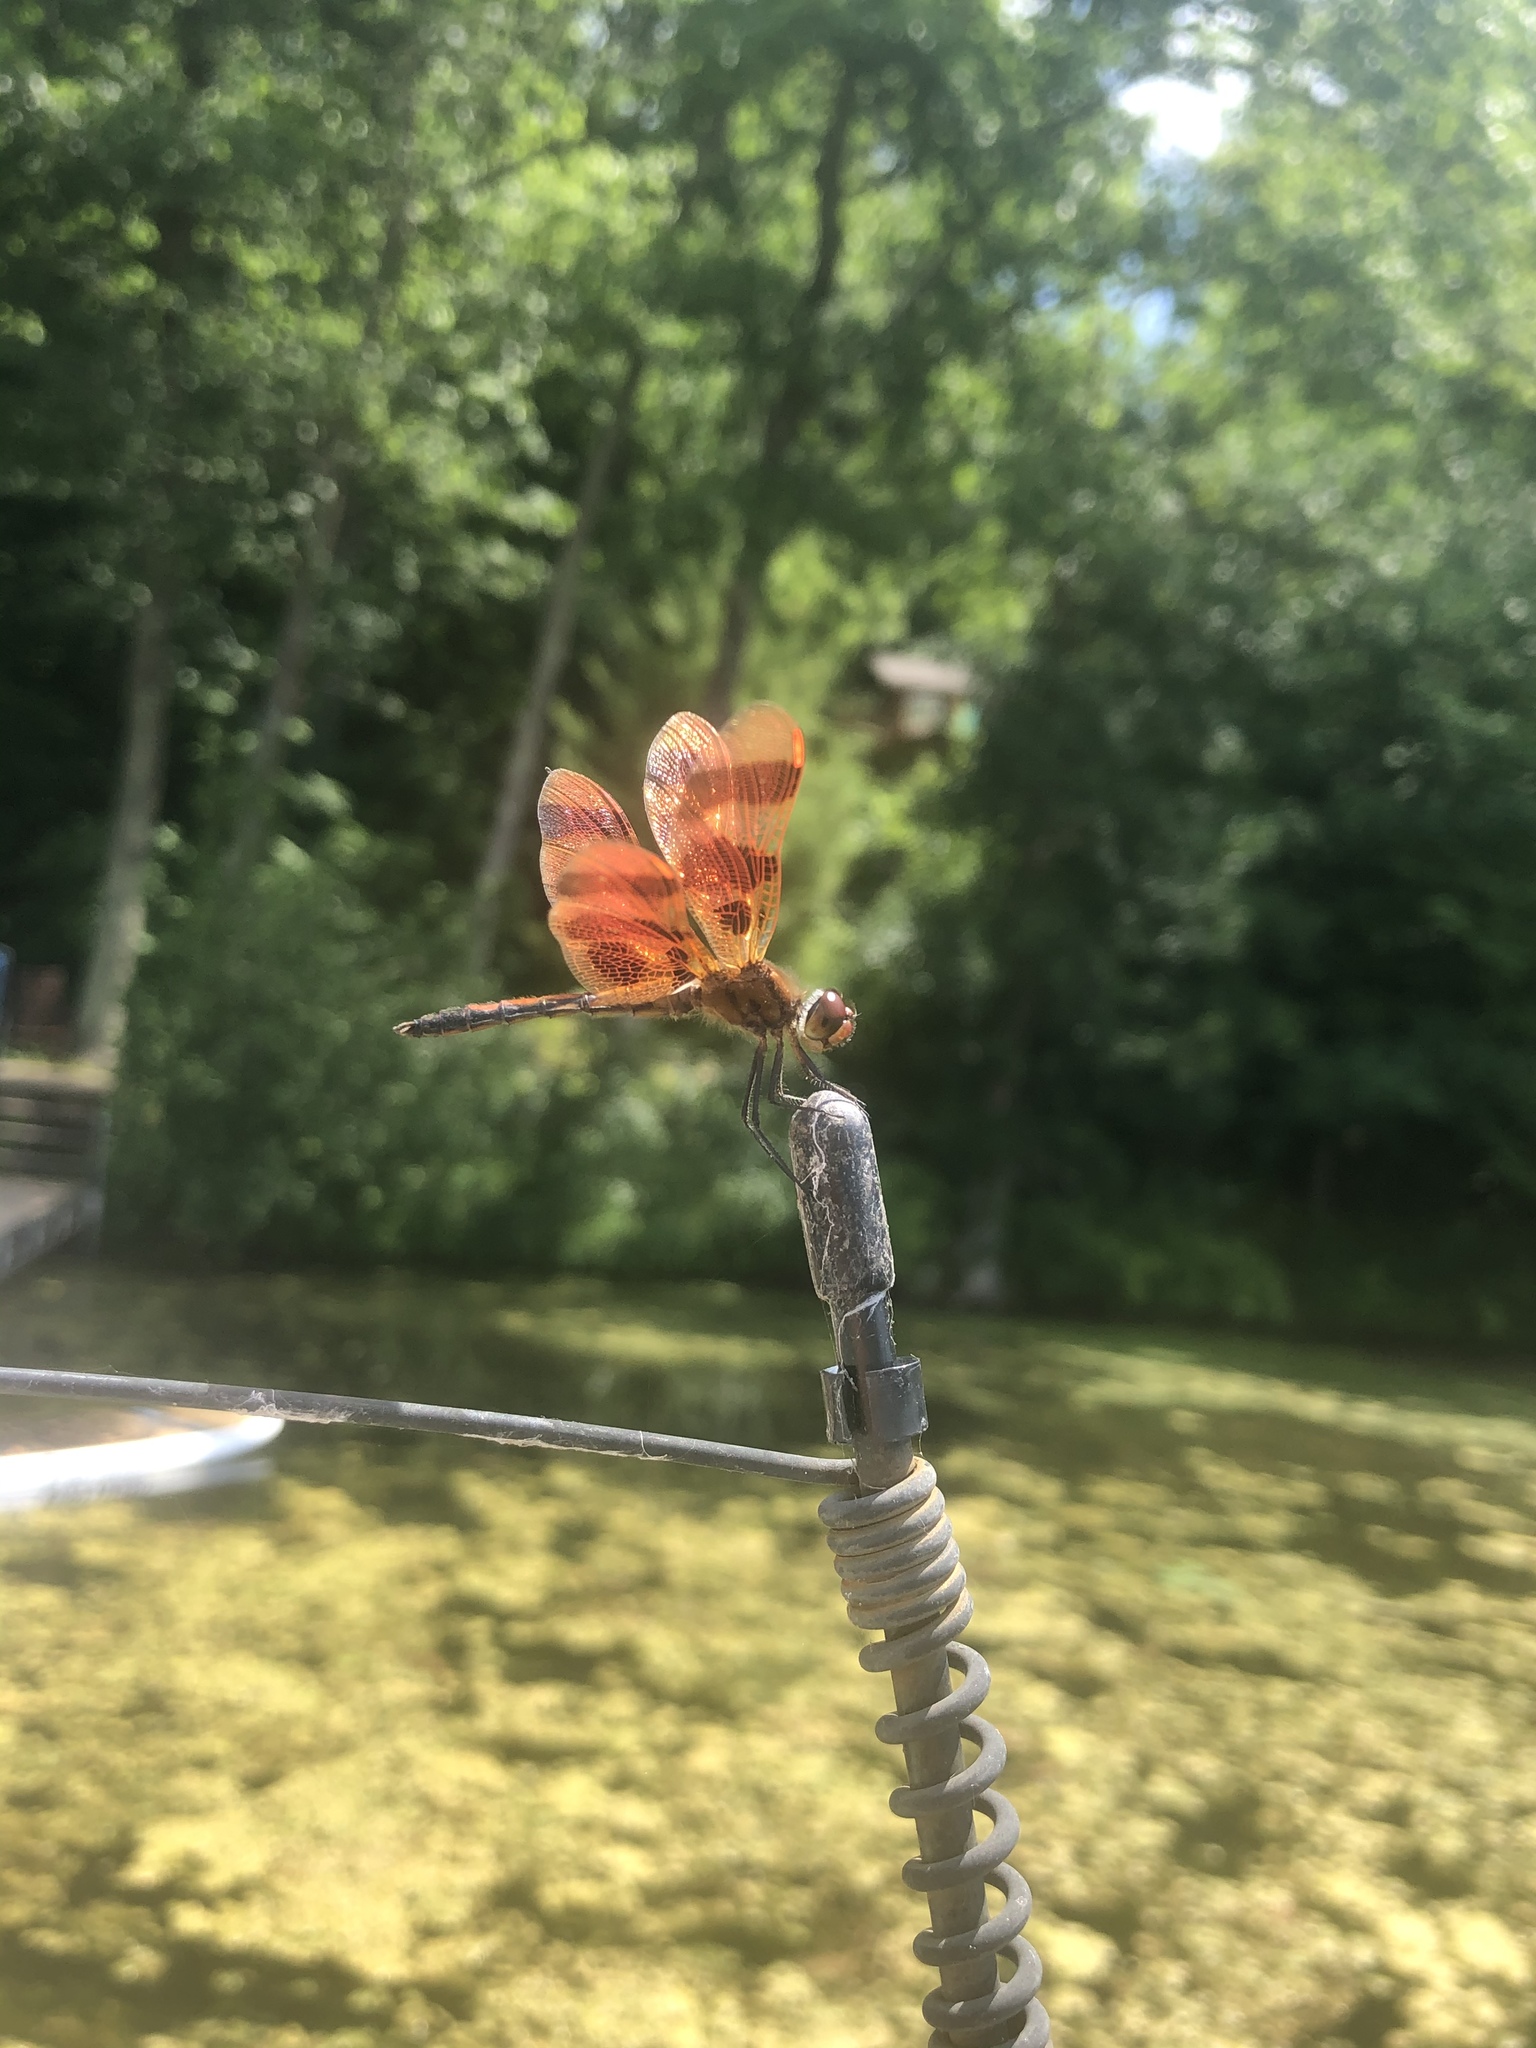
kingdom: Animalia
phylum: Arthropoda
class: Insecta
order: Odonata
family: Libellulidae
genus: Celithemis
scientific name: Celithemis eponina
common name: Halloween pennant
